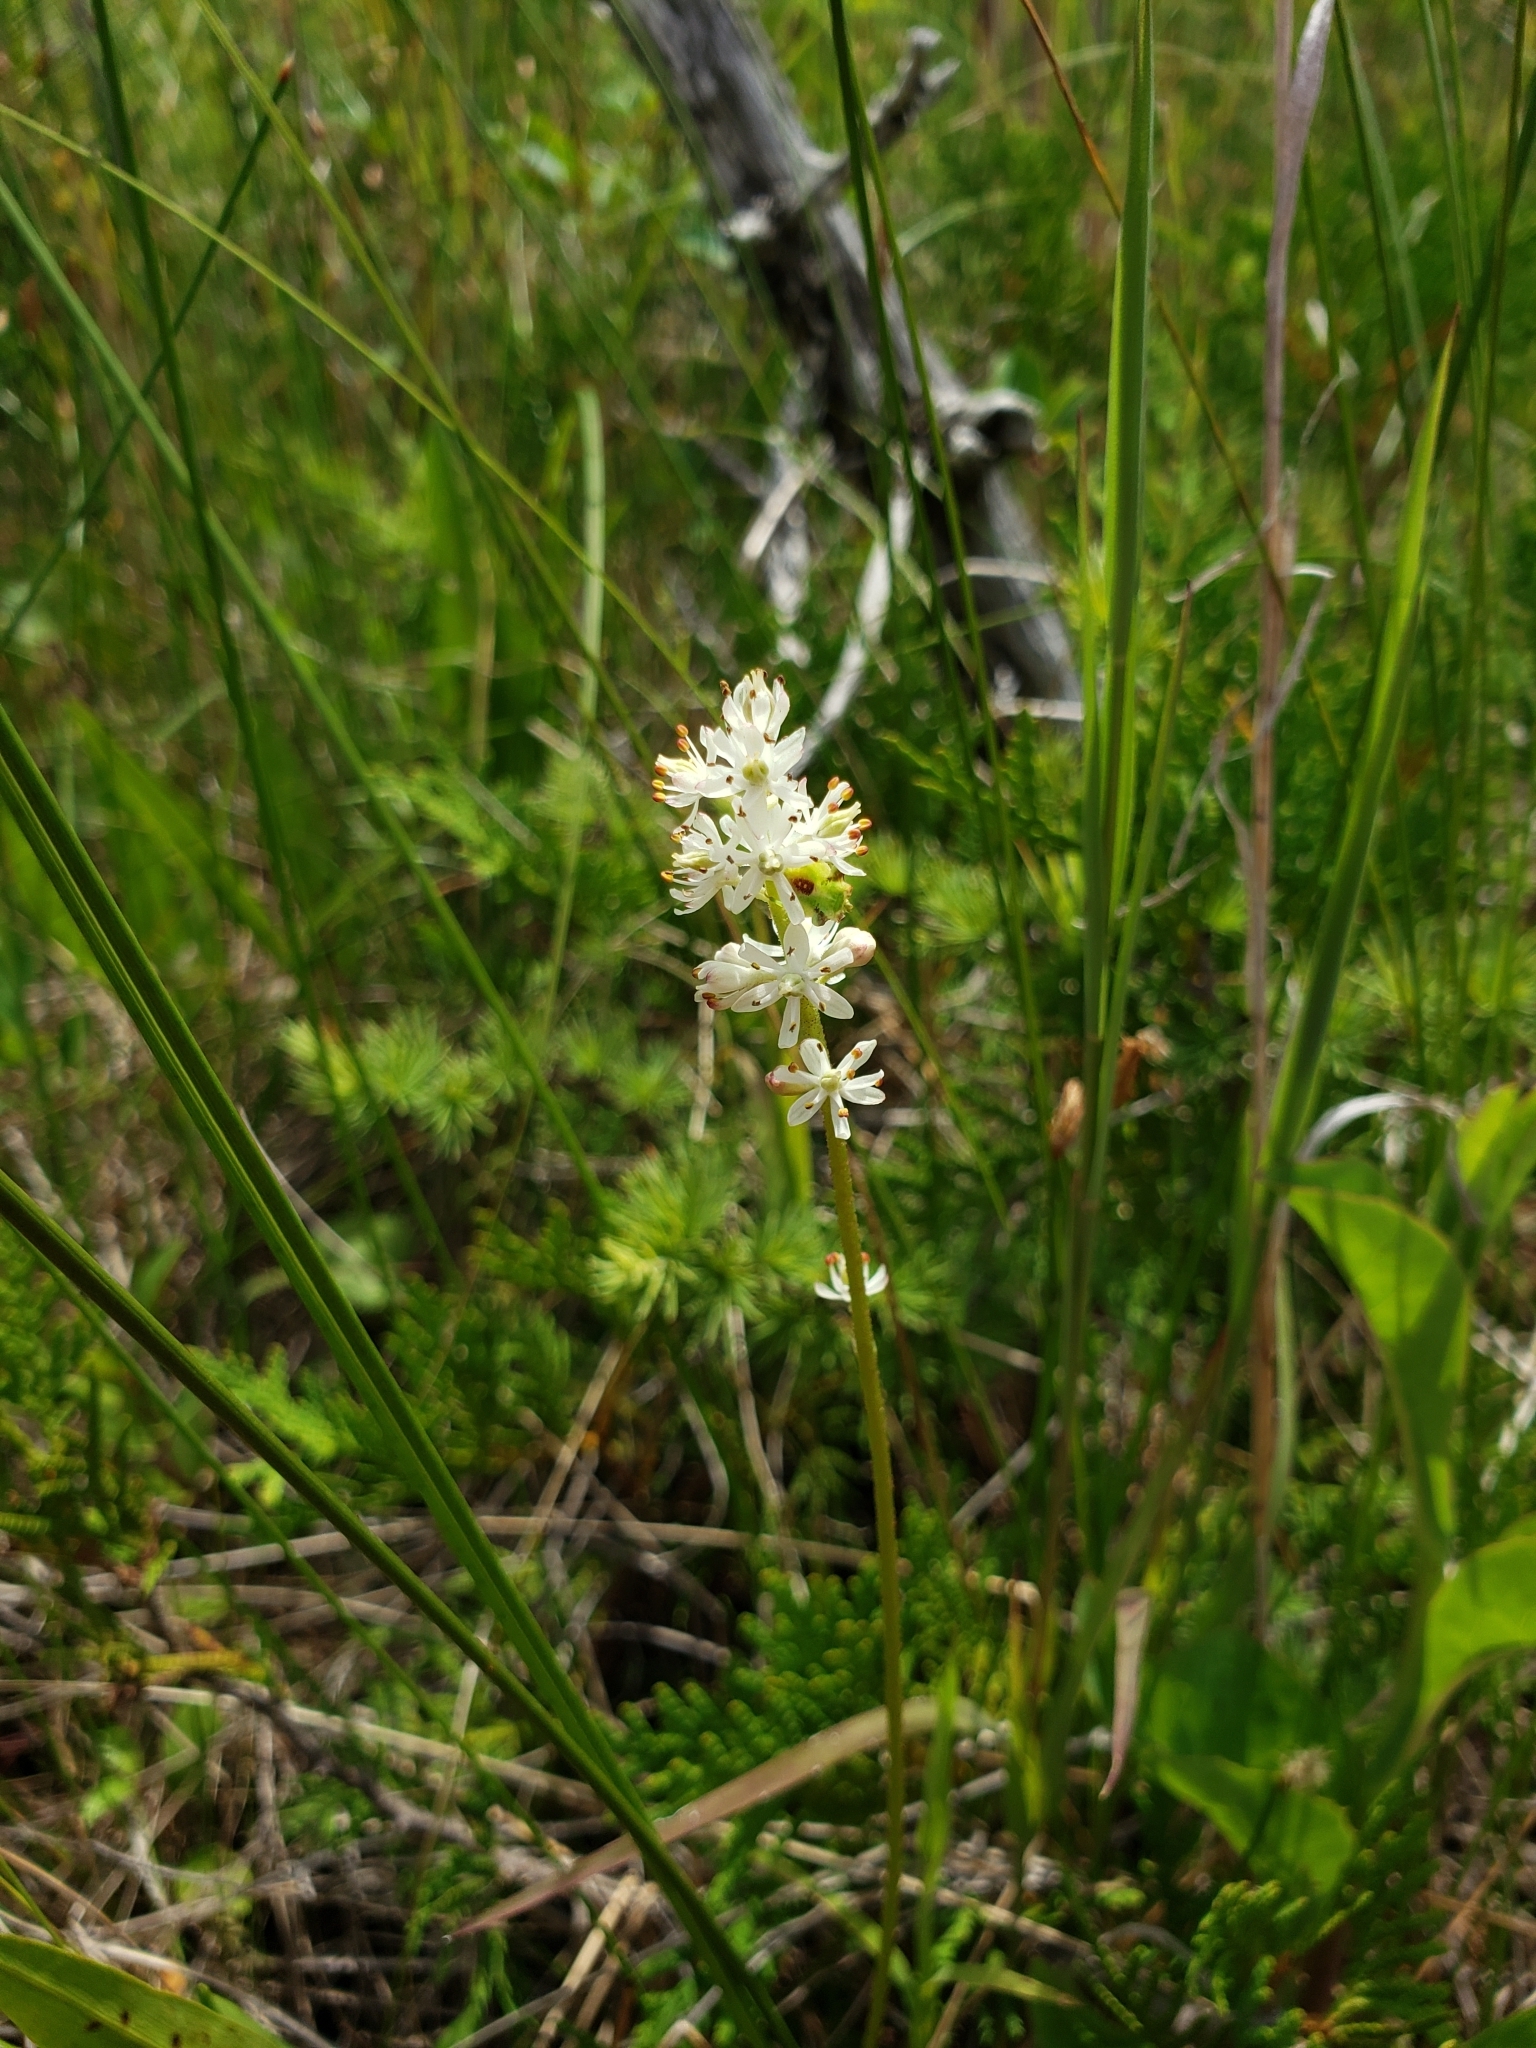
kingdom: Plantae
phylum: Tracheophyta
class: Liliopsida
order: Alismatales
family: Tofieldiaceae
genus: Triantha
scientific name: Triantha glutinosa
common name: Glutinous tofieldia
